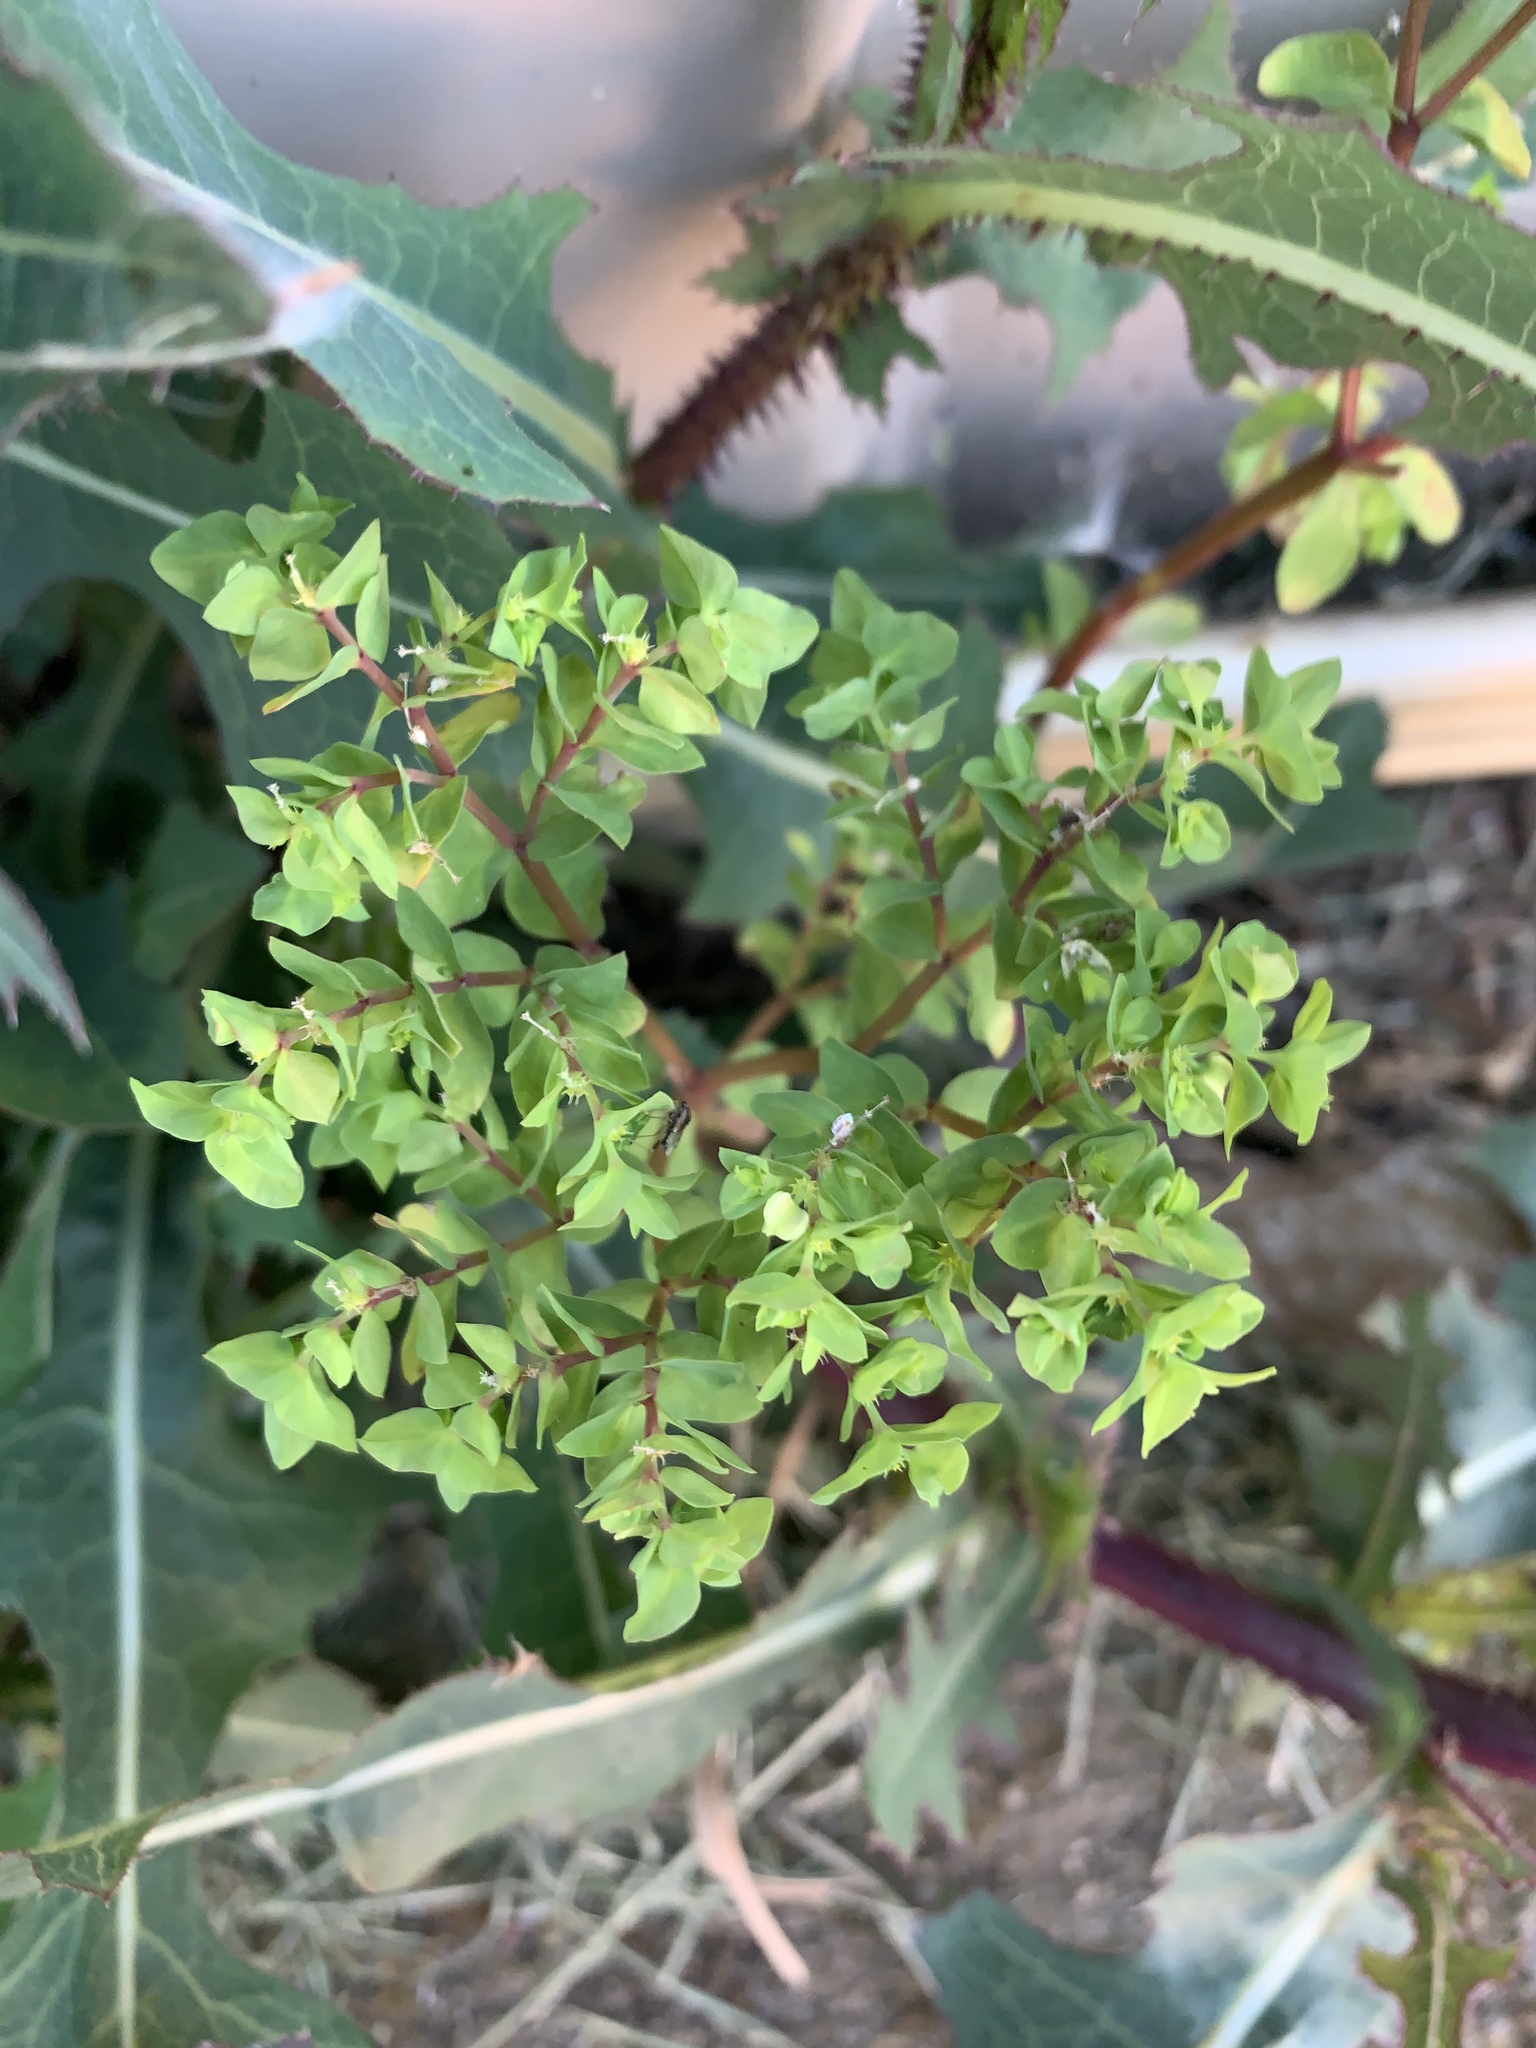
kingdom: Plantae
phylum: Tracheophyta
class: Magnoliopsida
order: Malpighiales
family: Euphorbiaceae
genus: Euphorbia
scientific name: Euphorbia peplus
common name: Petty spurge
